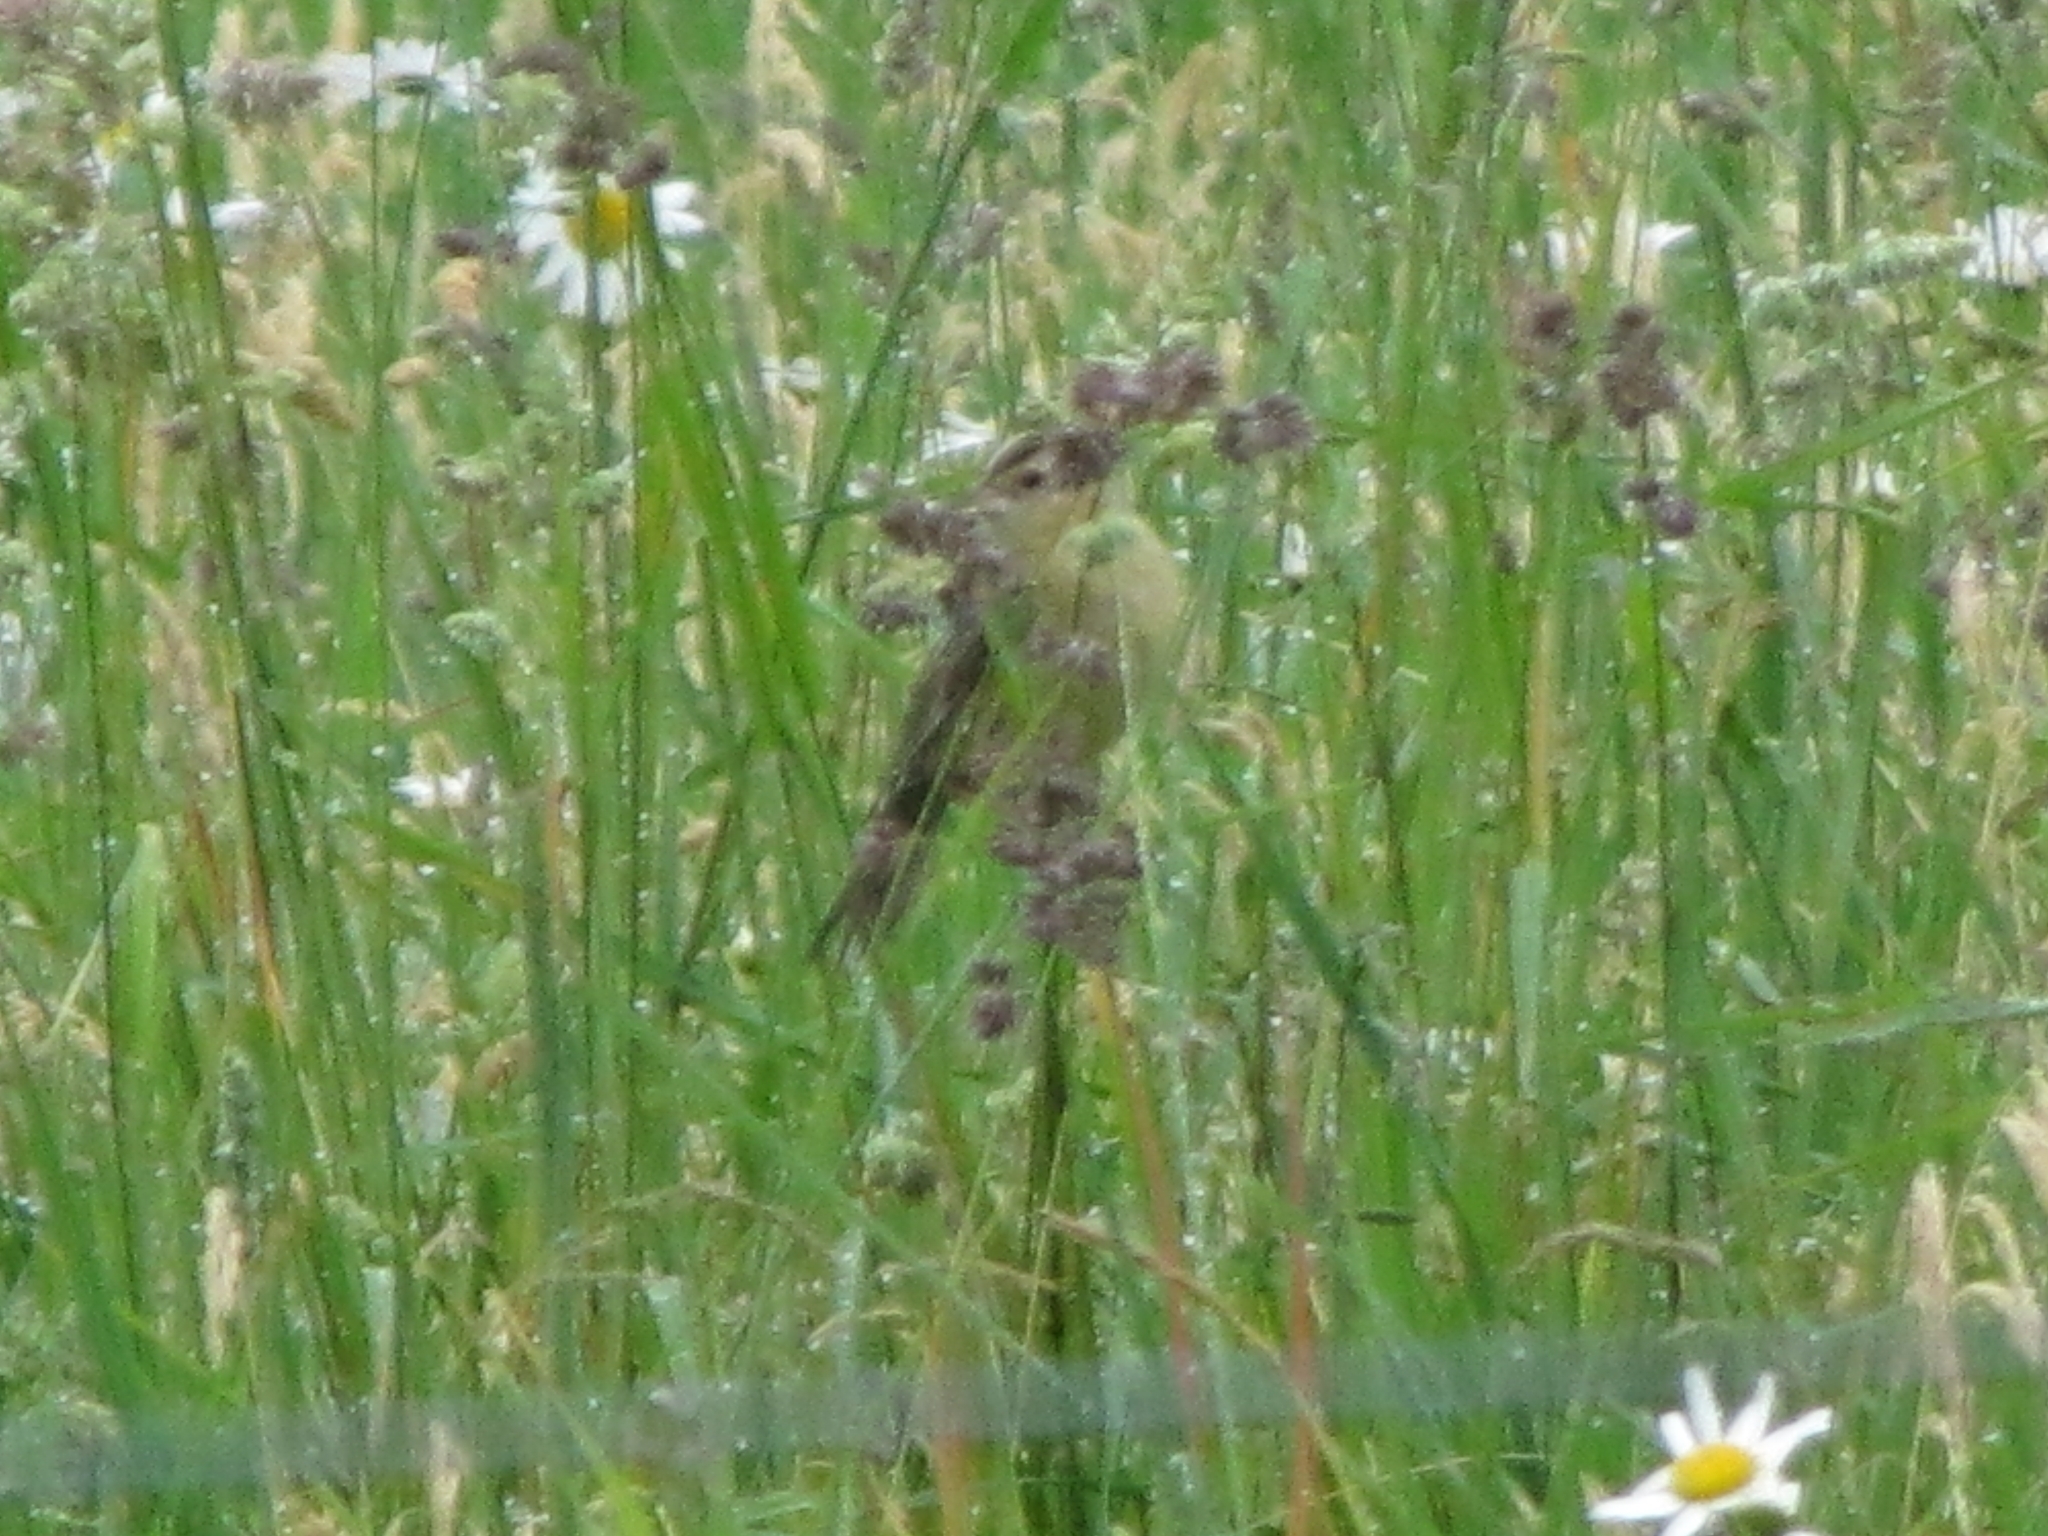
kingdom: Animalia
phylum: Chordata
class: Aves
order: Passeriformes
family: Icteridae
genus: Dolichonyx
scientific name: Dolichonyx oryzivorus
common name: Bobolink
